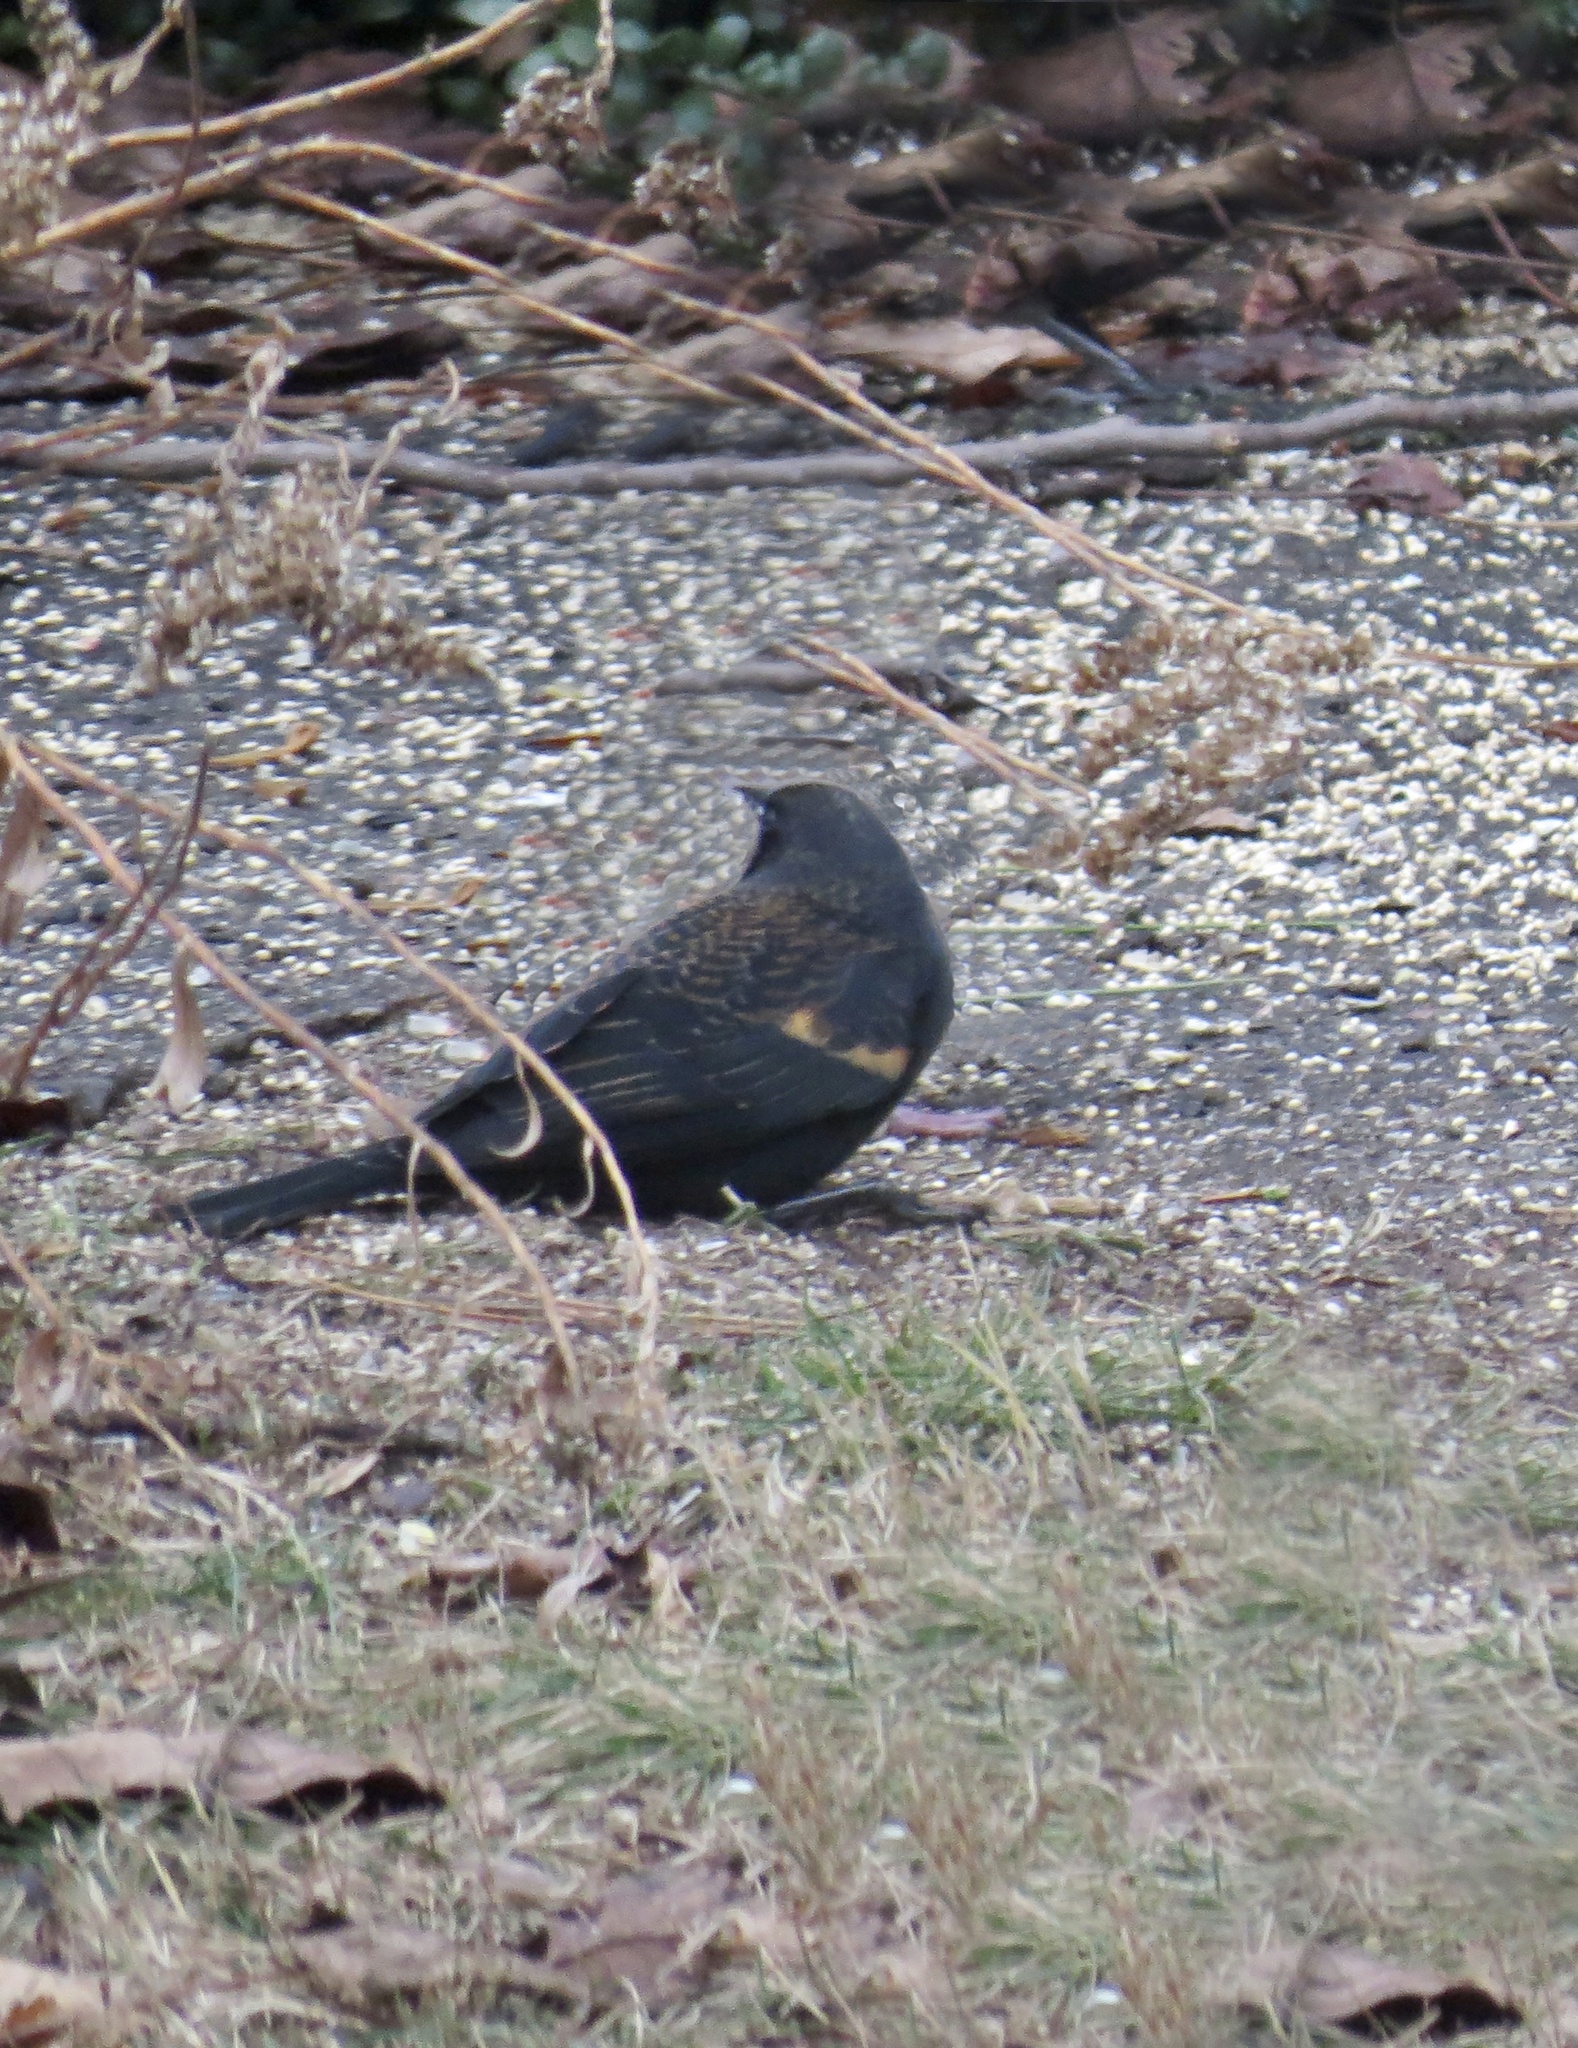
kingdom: Animalia
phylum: Chordata
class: Aves
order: Passeriformes
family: Icteridae
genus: Agelaius
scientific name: Agelaius phoeniceus
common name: Red-winged blackbird
